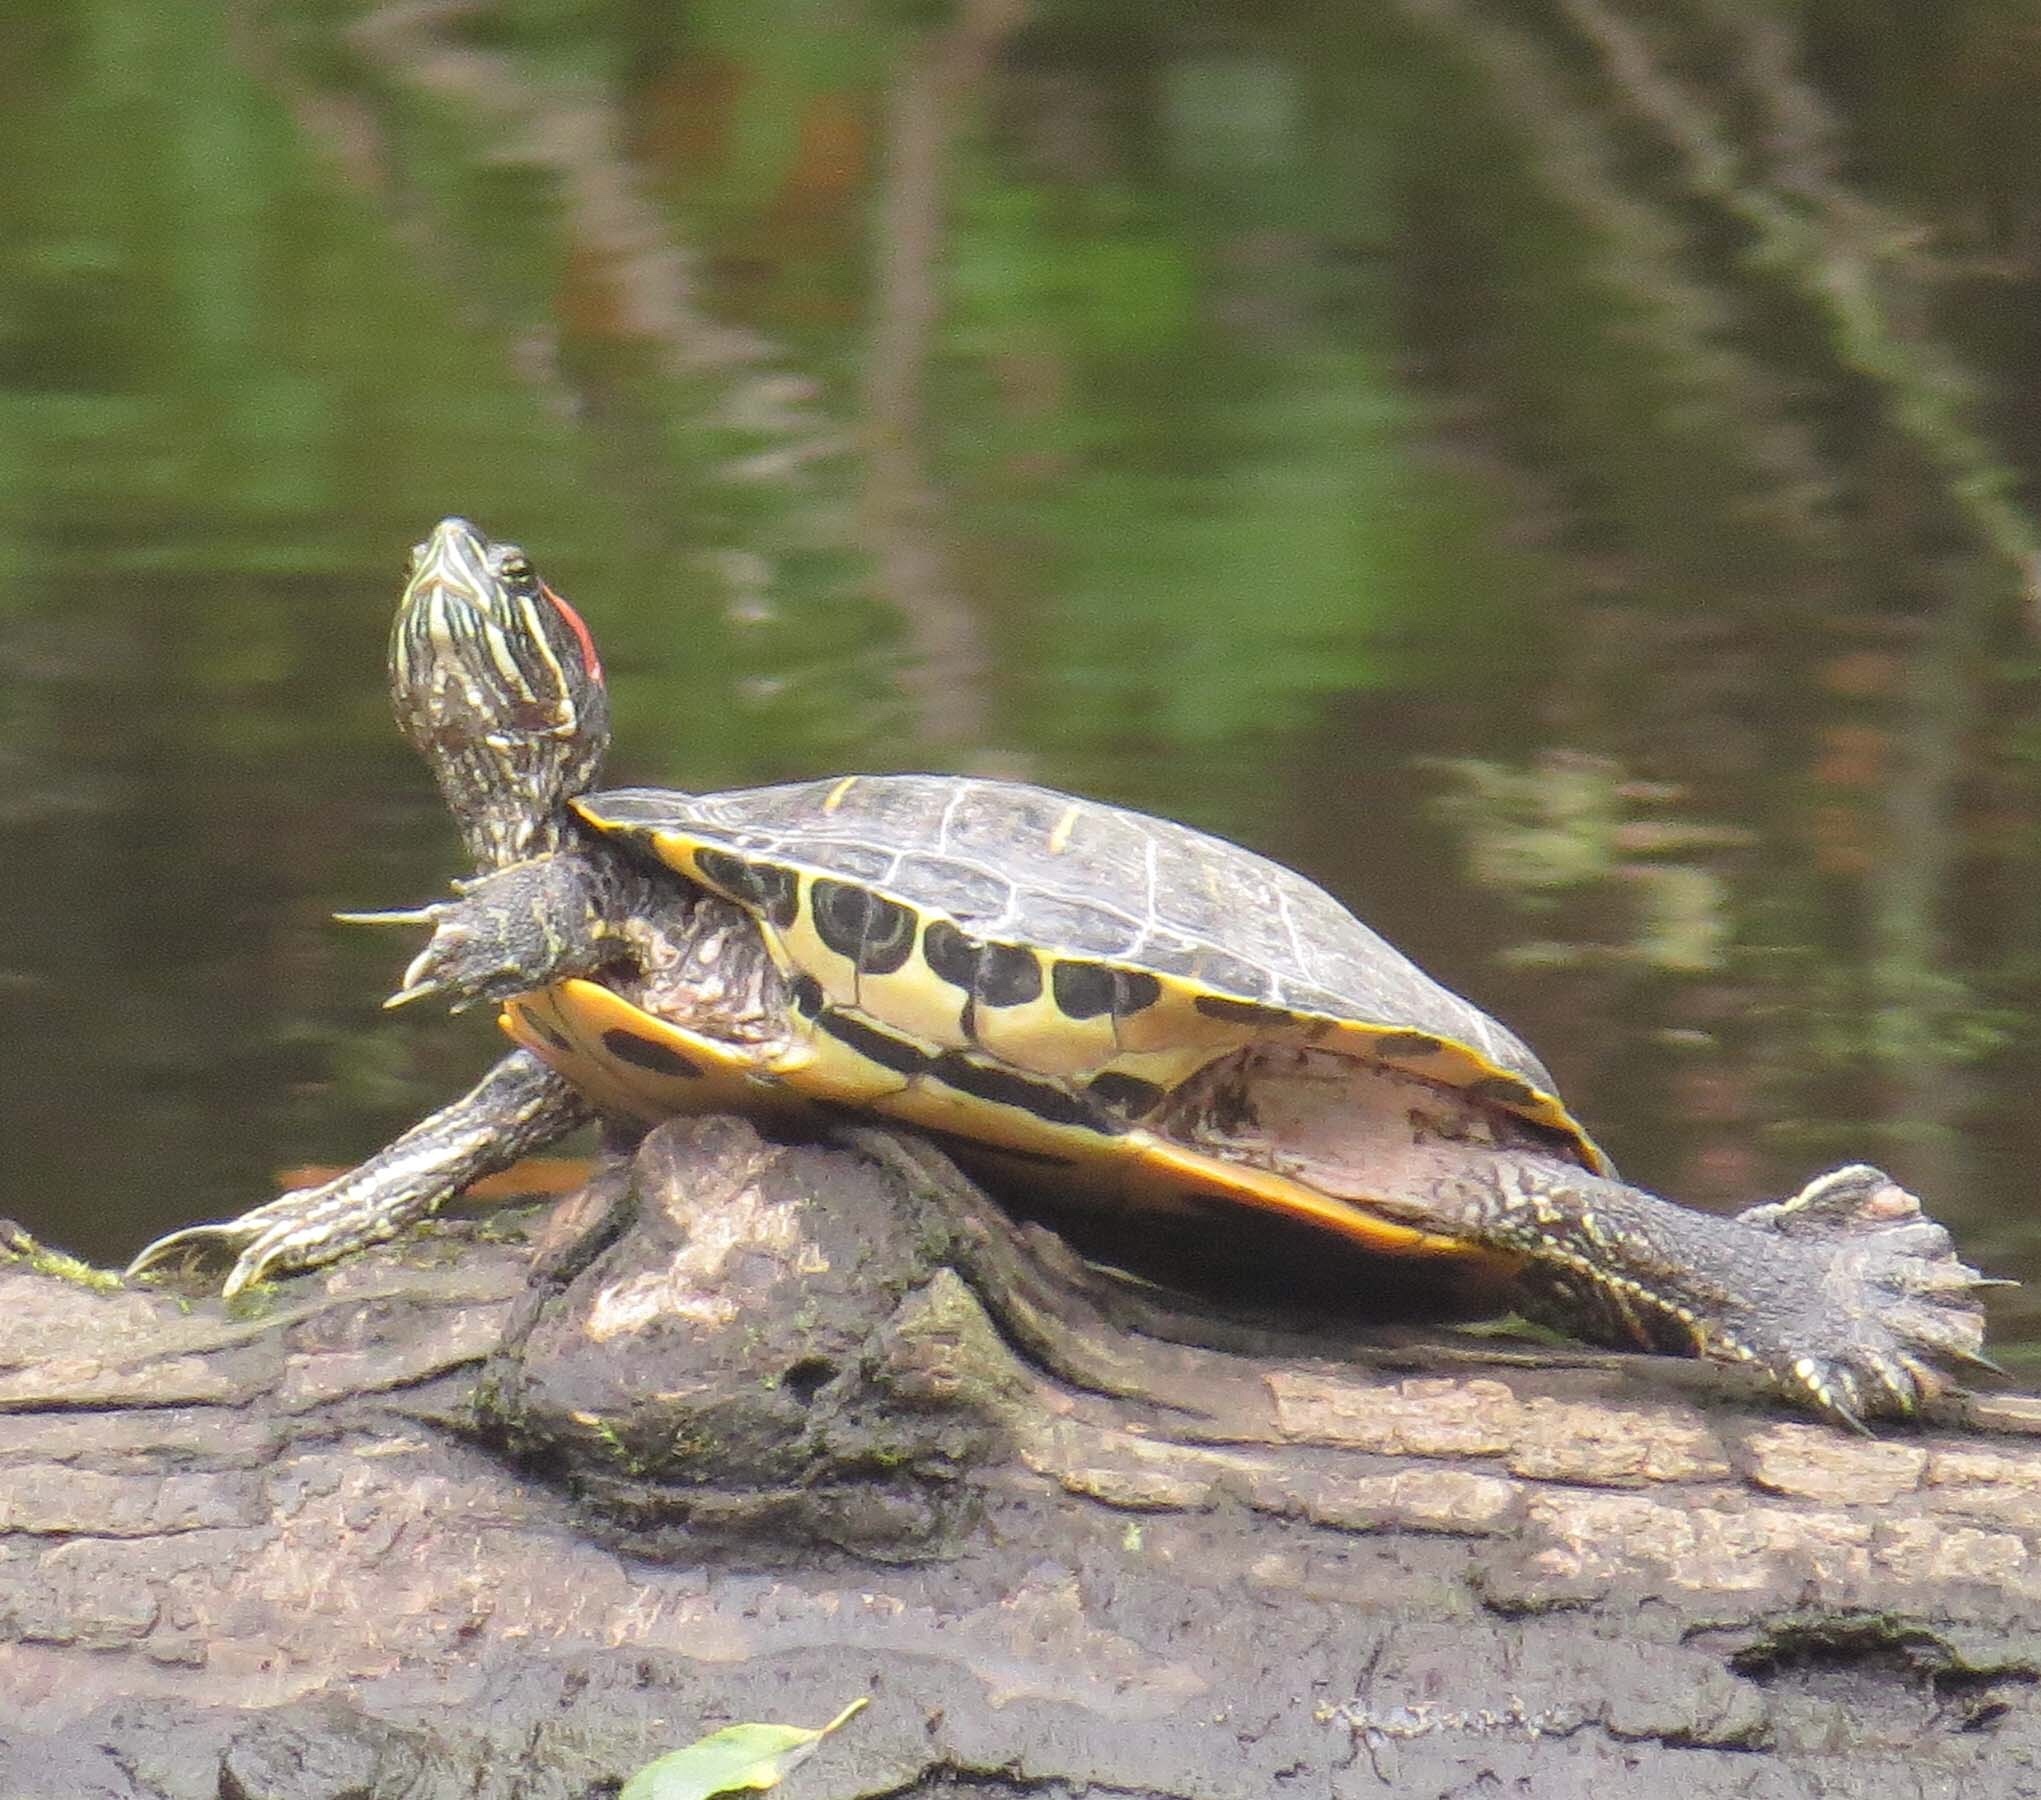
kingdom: Animalia
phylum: Chordata
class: Testudines
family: Emydidae
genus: Trachemys
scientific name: Trachemys scripta
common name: Slider
